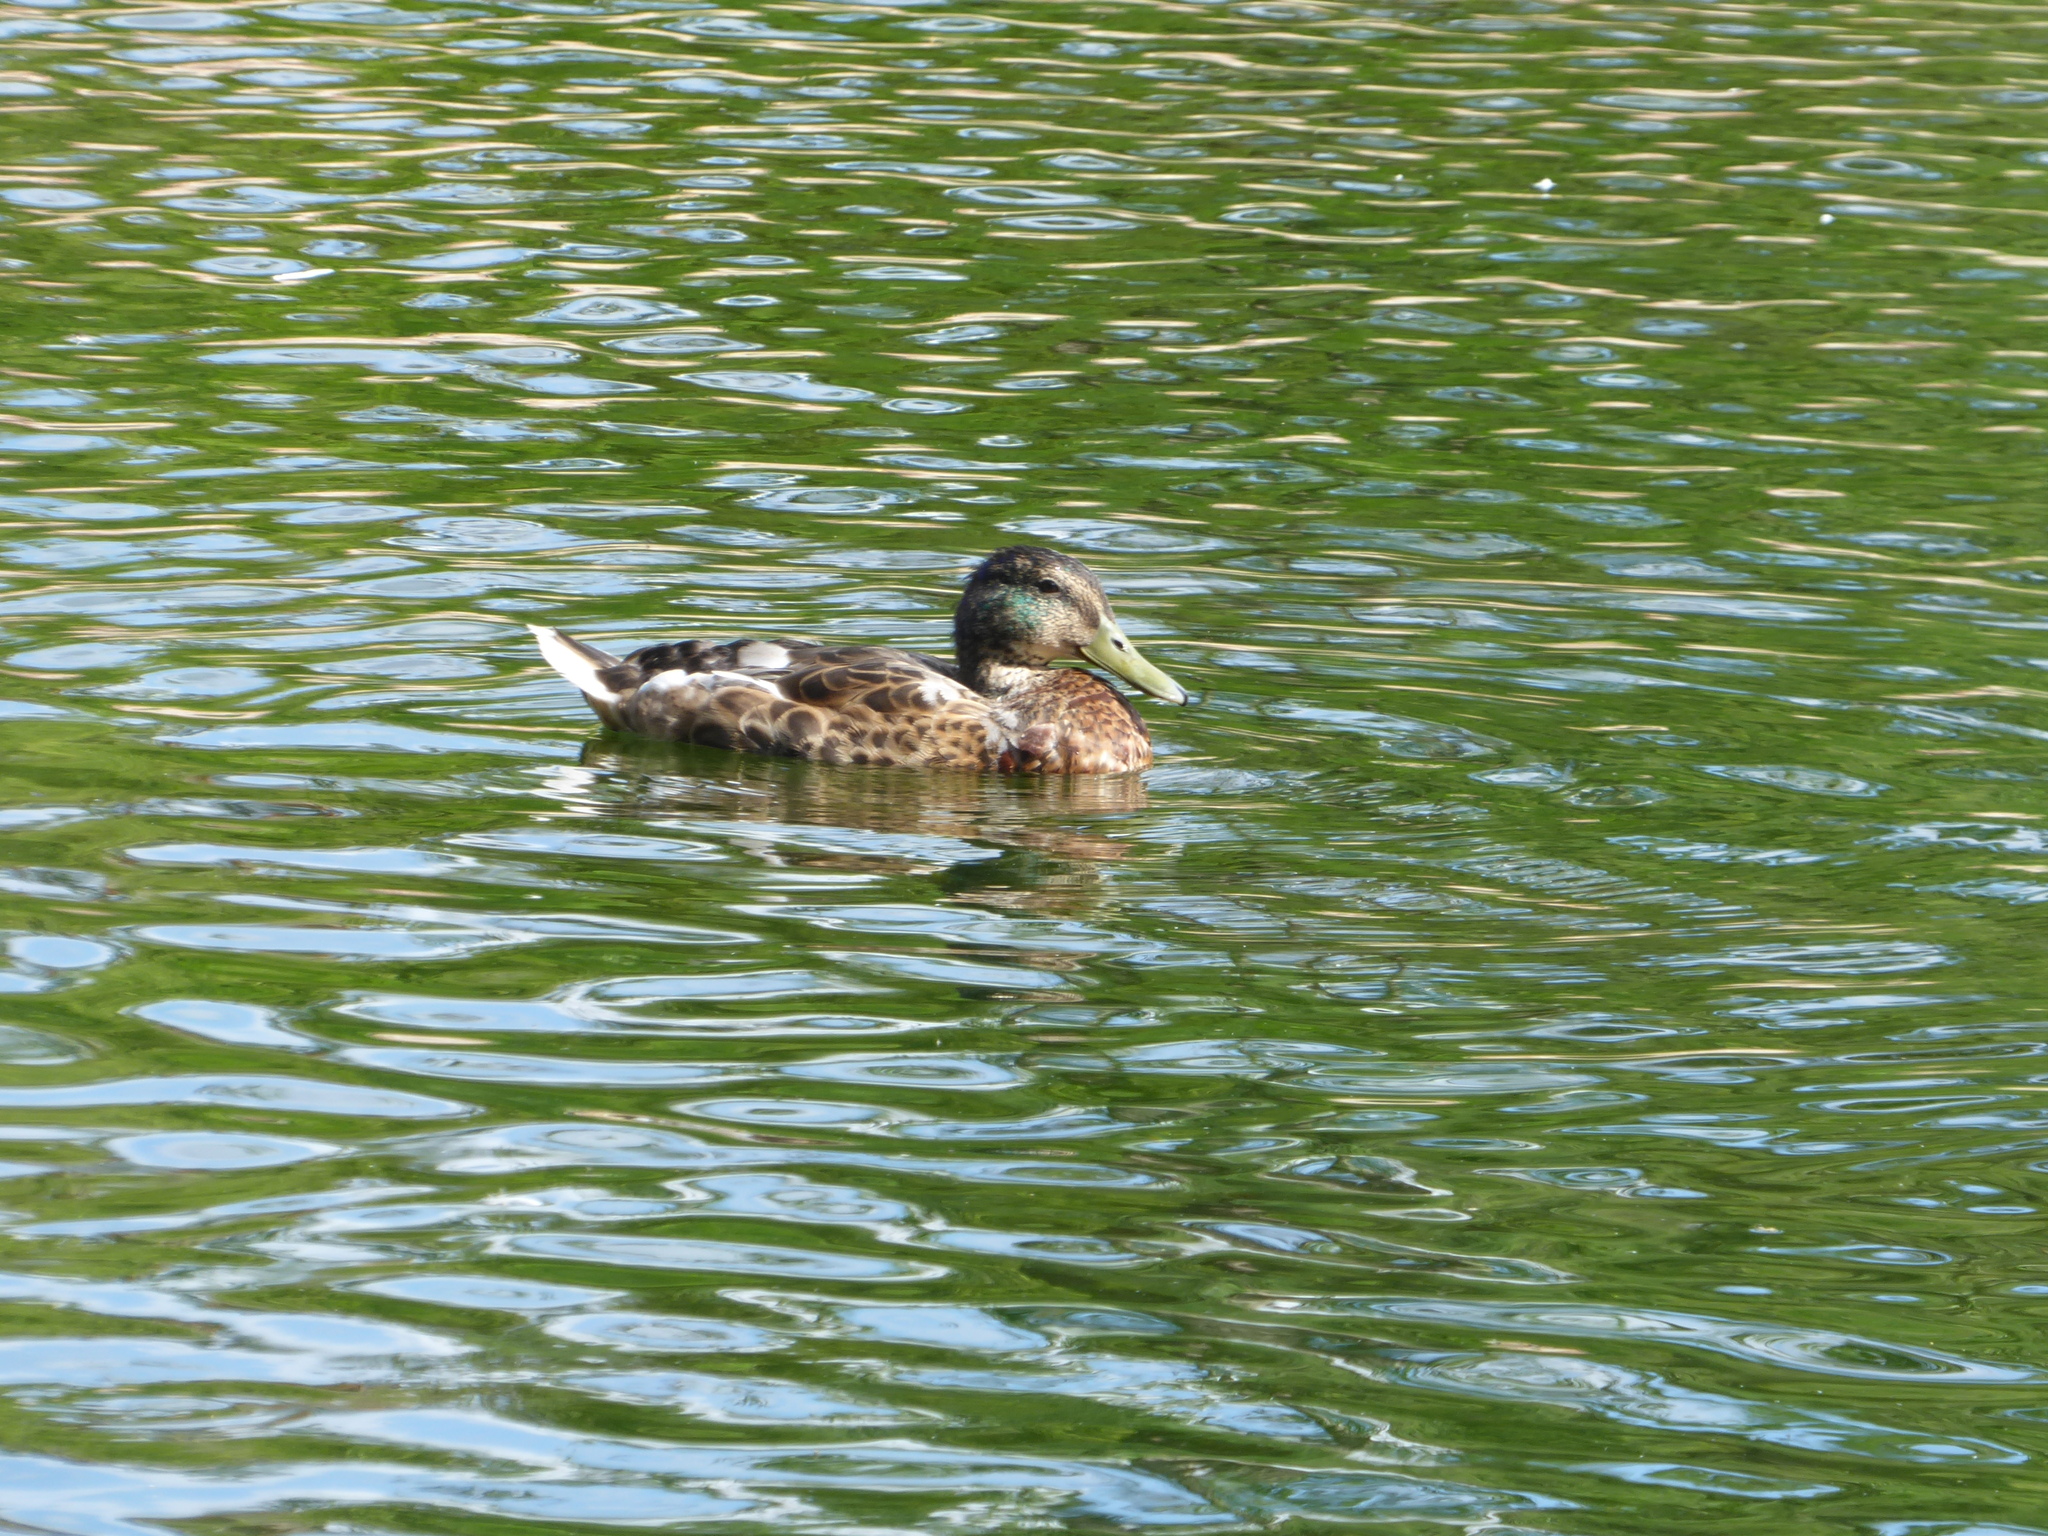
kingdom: Animalia
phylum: Chordata
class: Aves
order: Anseriformes
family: Anatidae
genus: Anas
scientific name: Anas platyrhynchos
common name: Mallard
